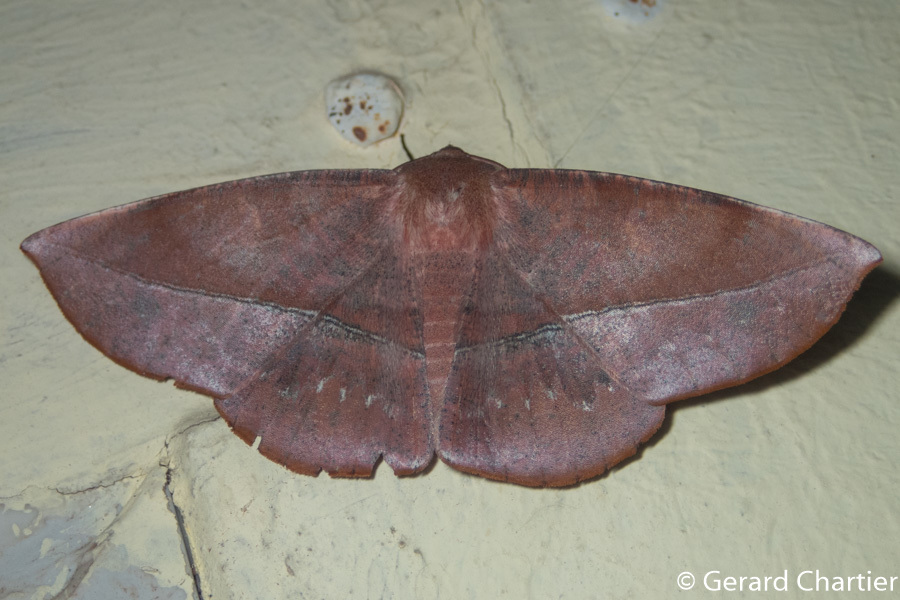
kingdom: Animalia
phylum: Arthropoda
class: Insecta
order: Lepidoptera
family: Geometridae
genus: Sarcinodes
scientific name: Sarcinodes sumatraria
